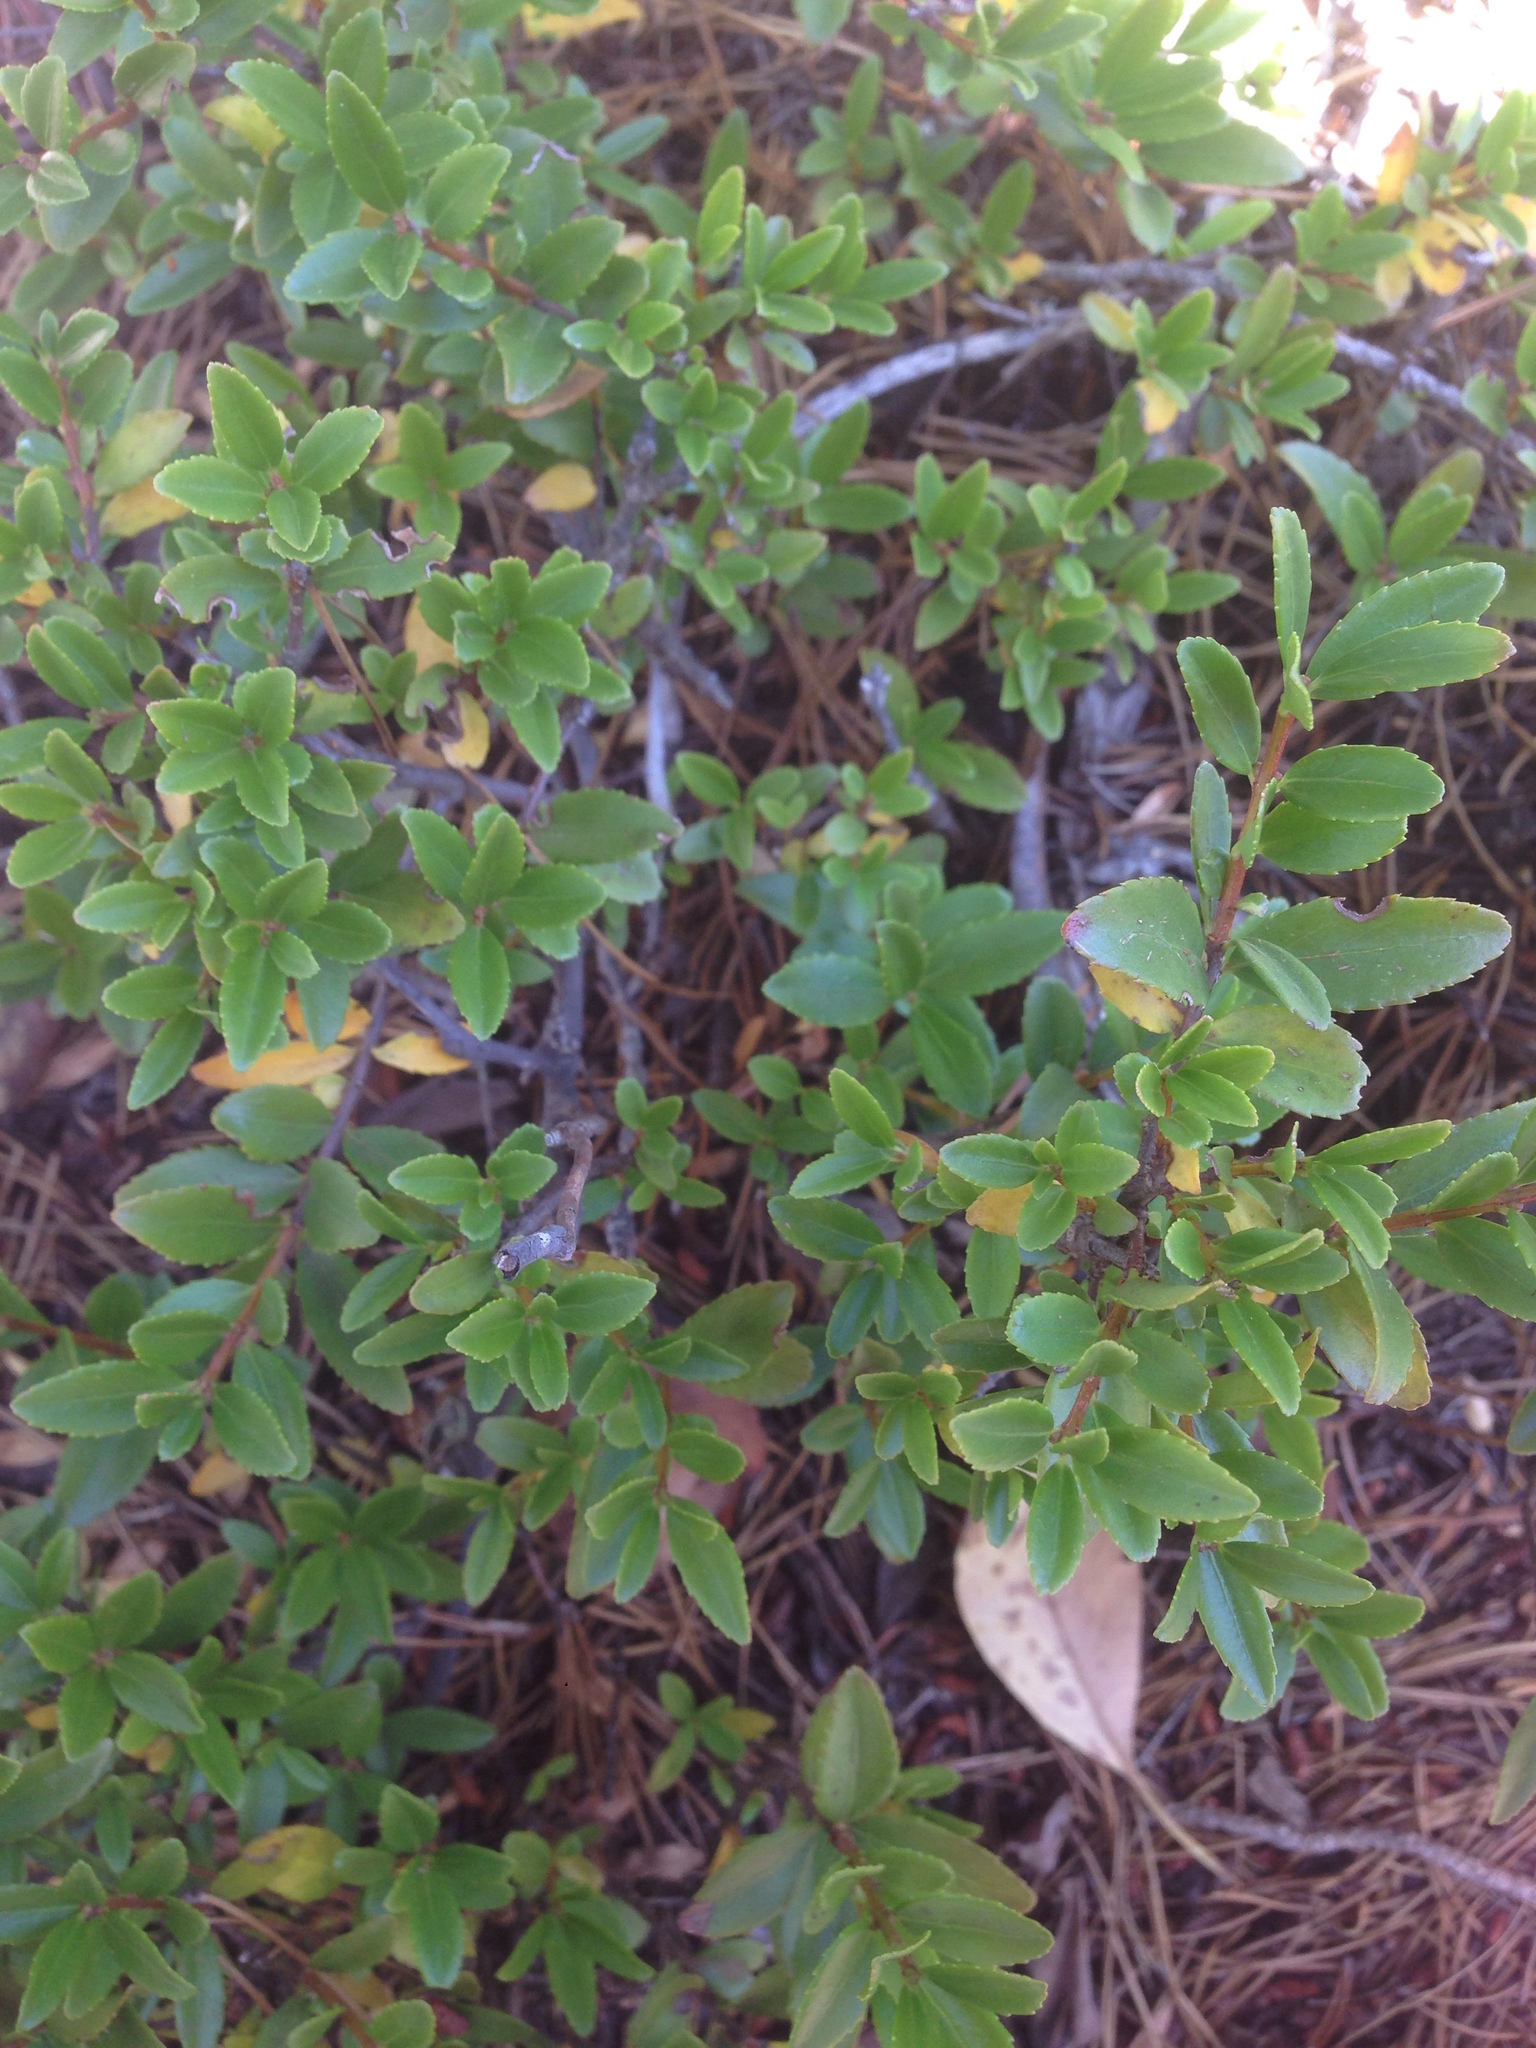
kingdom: Plantae
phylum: Tracheophyta
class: Magnoliopsida
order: Ericales
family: Ericaceae
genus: Vaccinium
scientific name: Vaccinium ovatum
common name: California-huckleberry
